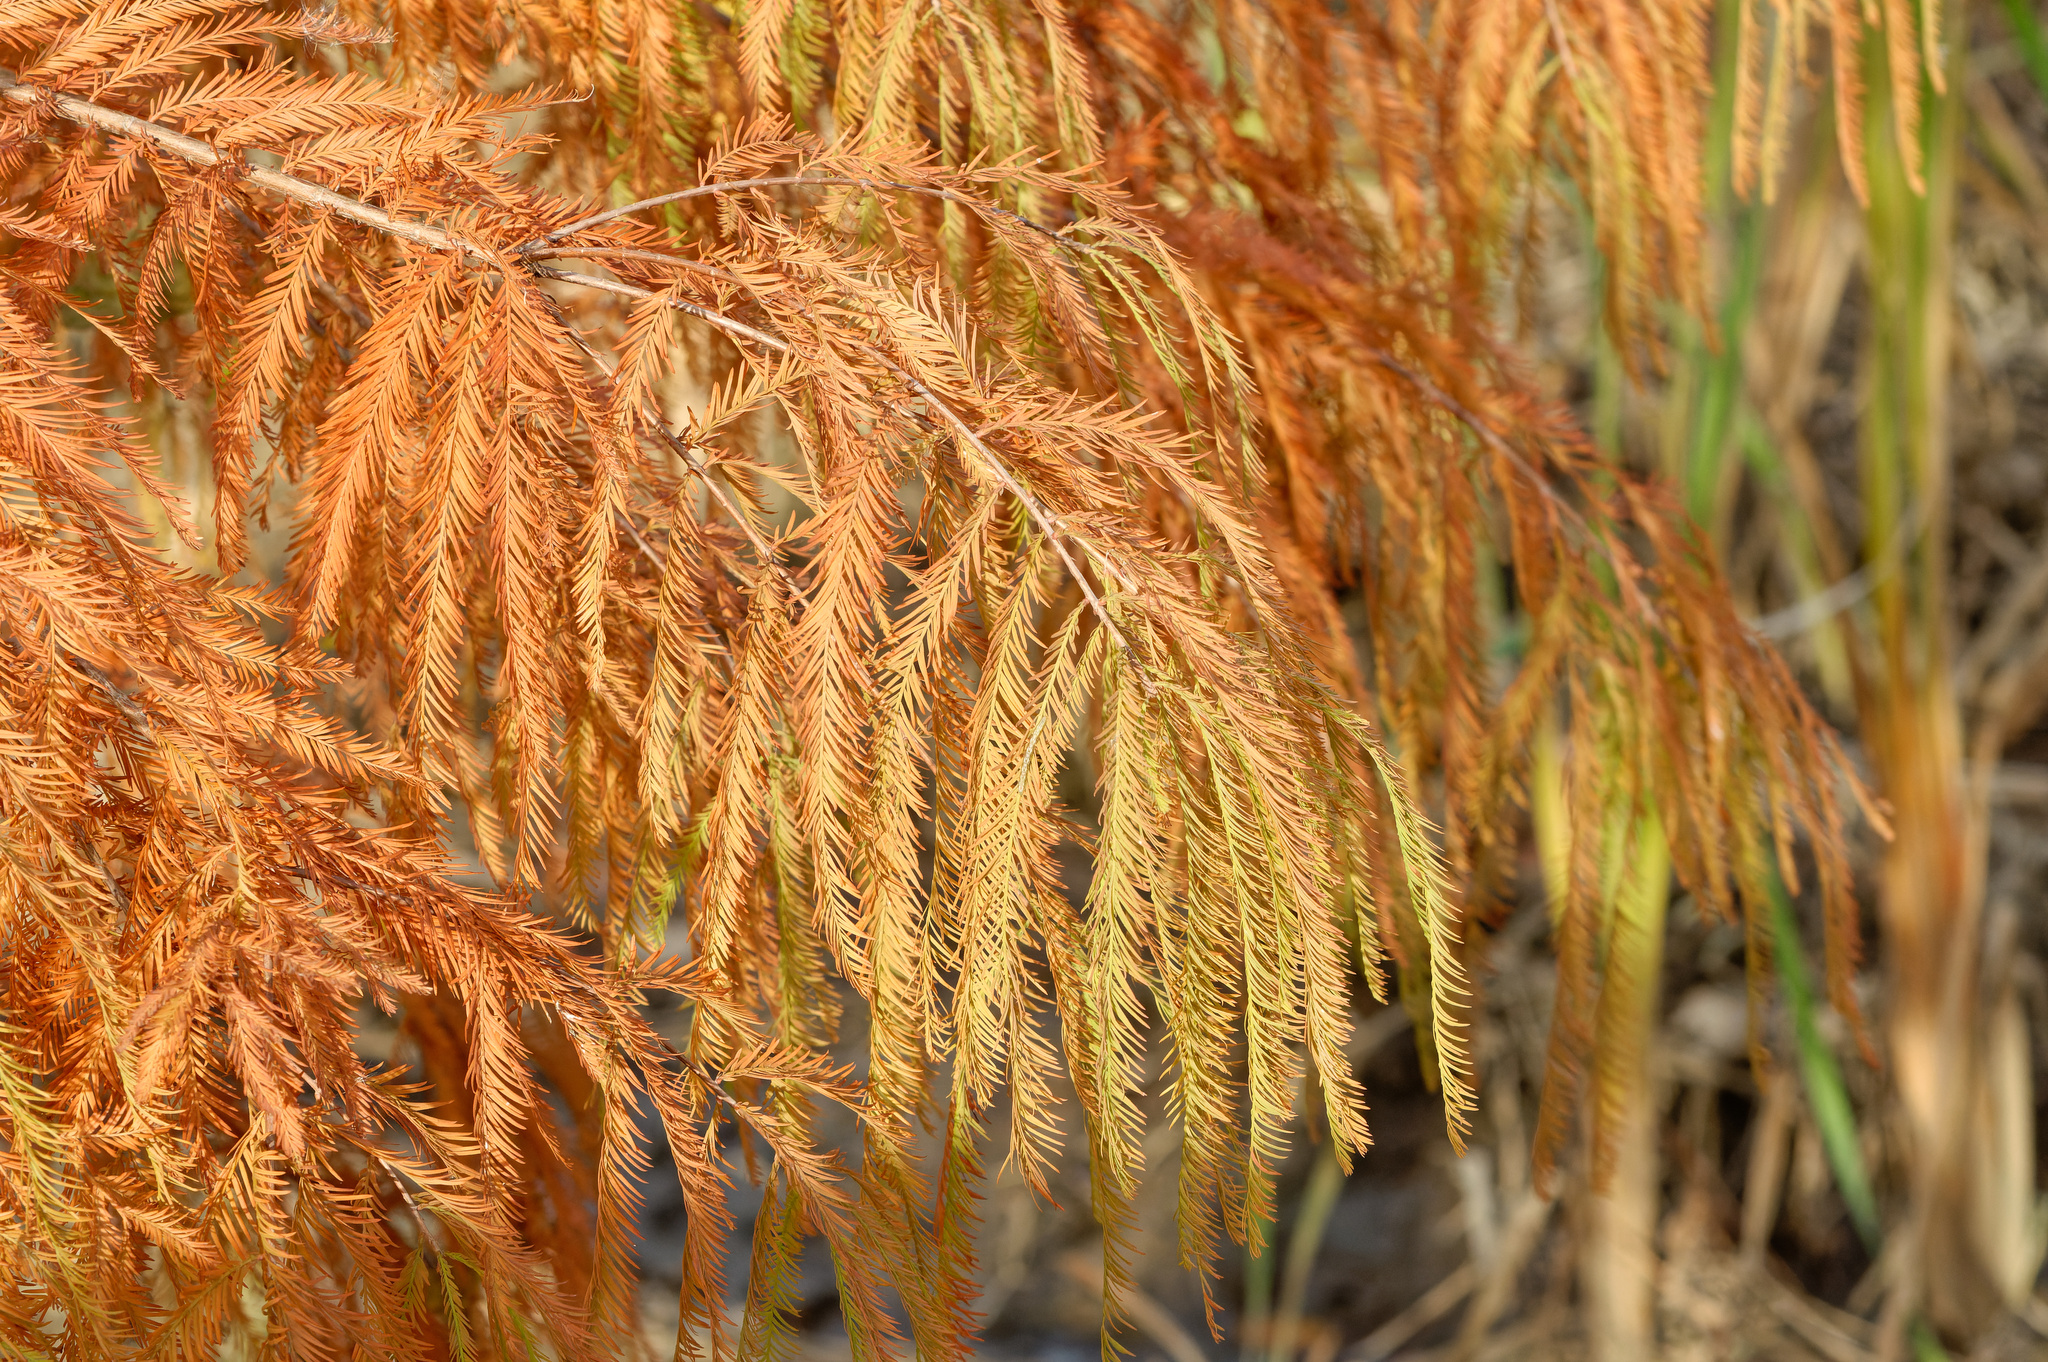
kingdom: Plantae
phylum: Tracheophyta
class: Pinopsida
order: Pinales
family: Cupressaceae
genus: Taxodium
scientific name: Taxodium distichum
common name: Bald cypress
